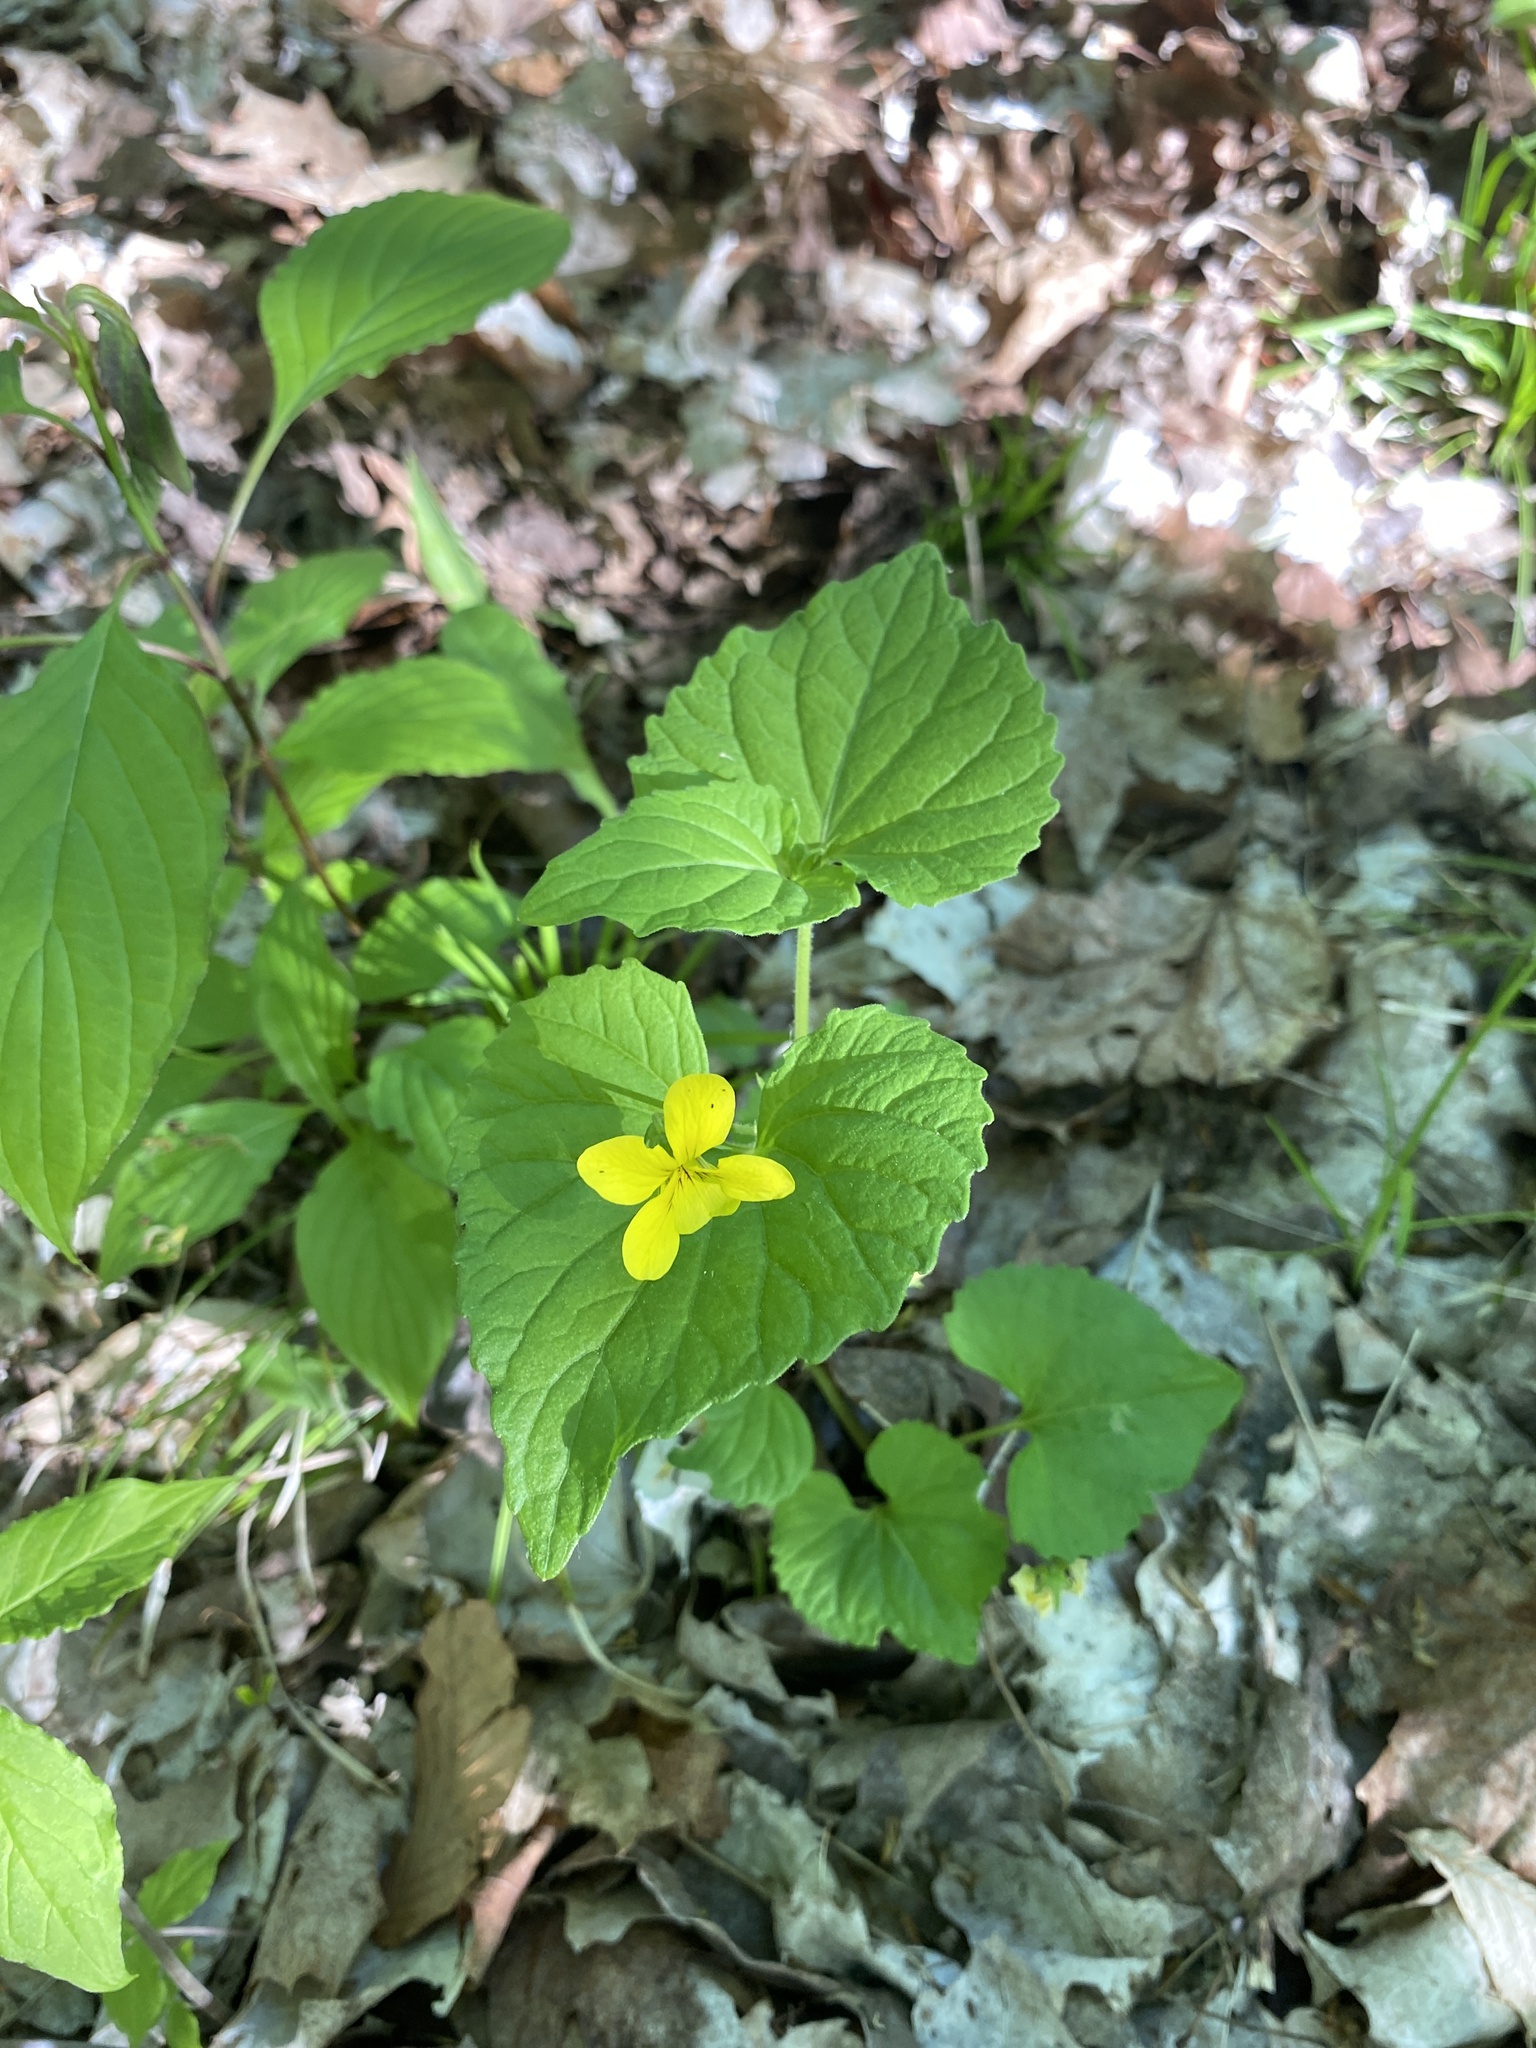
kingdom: Plantae
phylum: Tracheophyta
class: Magnoliopsida
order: Malpighiales
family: Violaceae
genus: Viola
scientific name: Viola eriocarpa
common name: Smooth yellow violet
